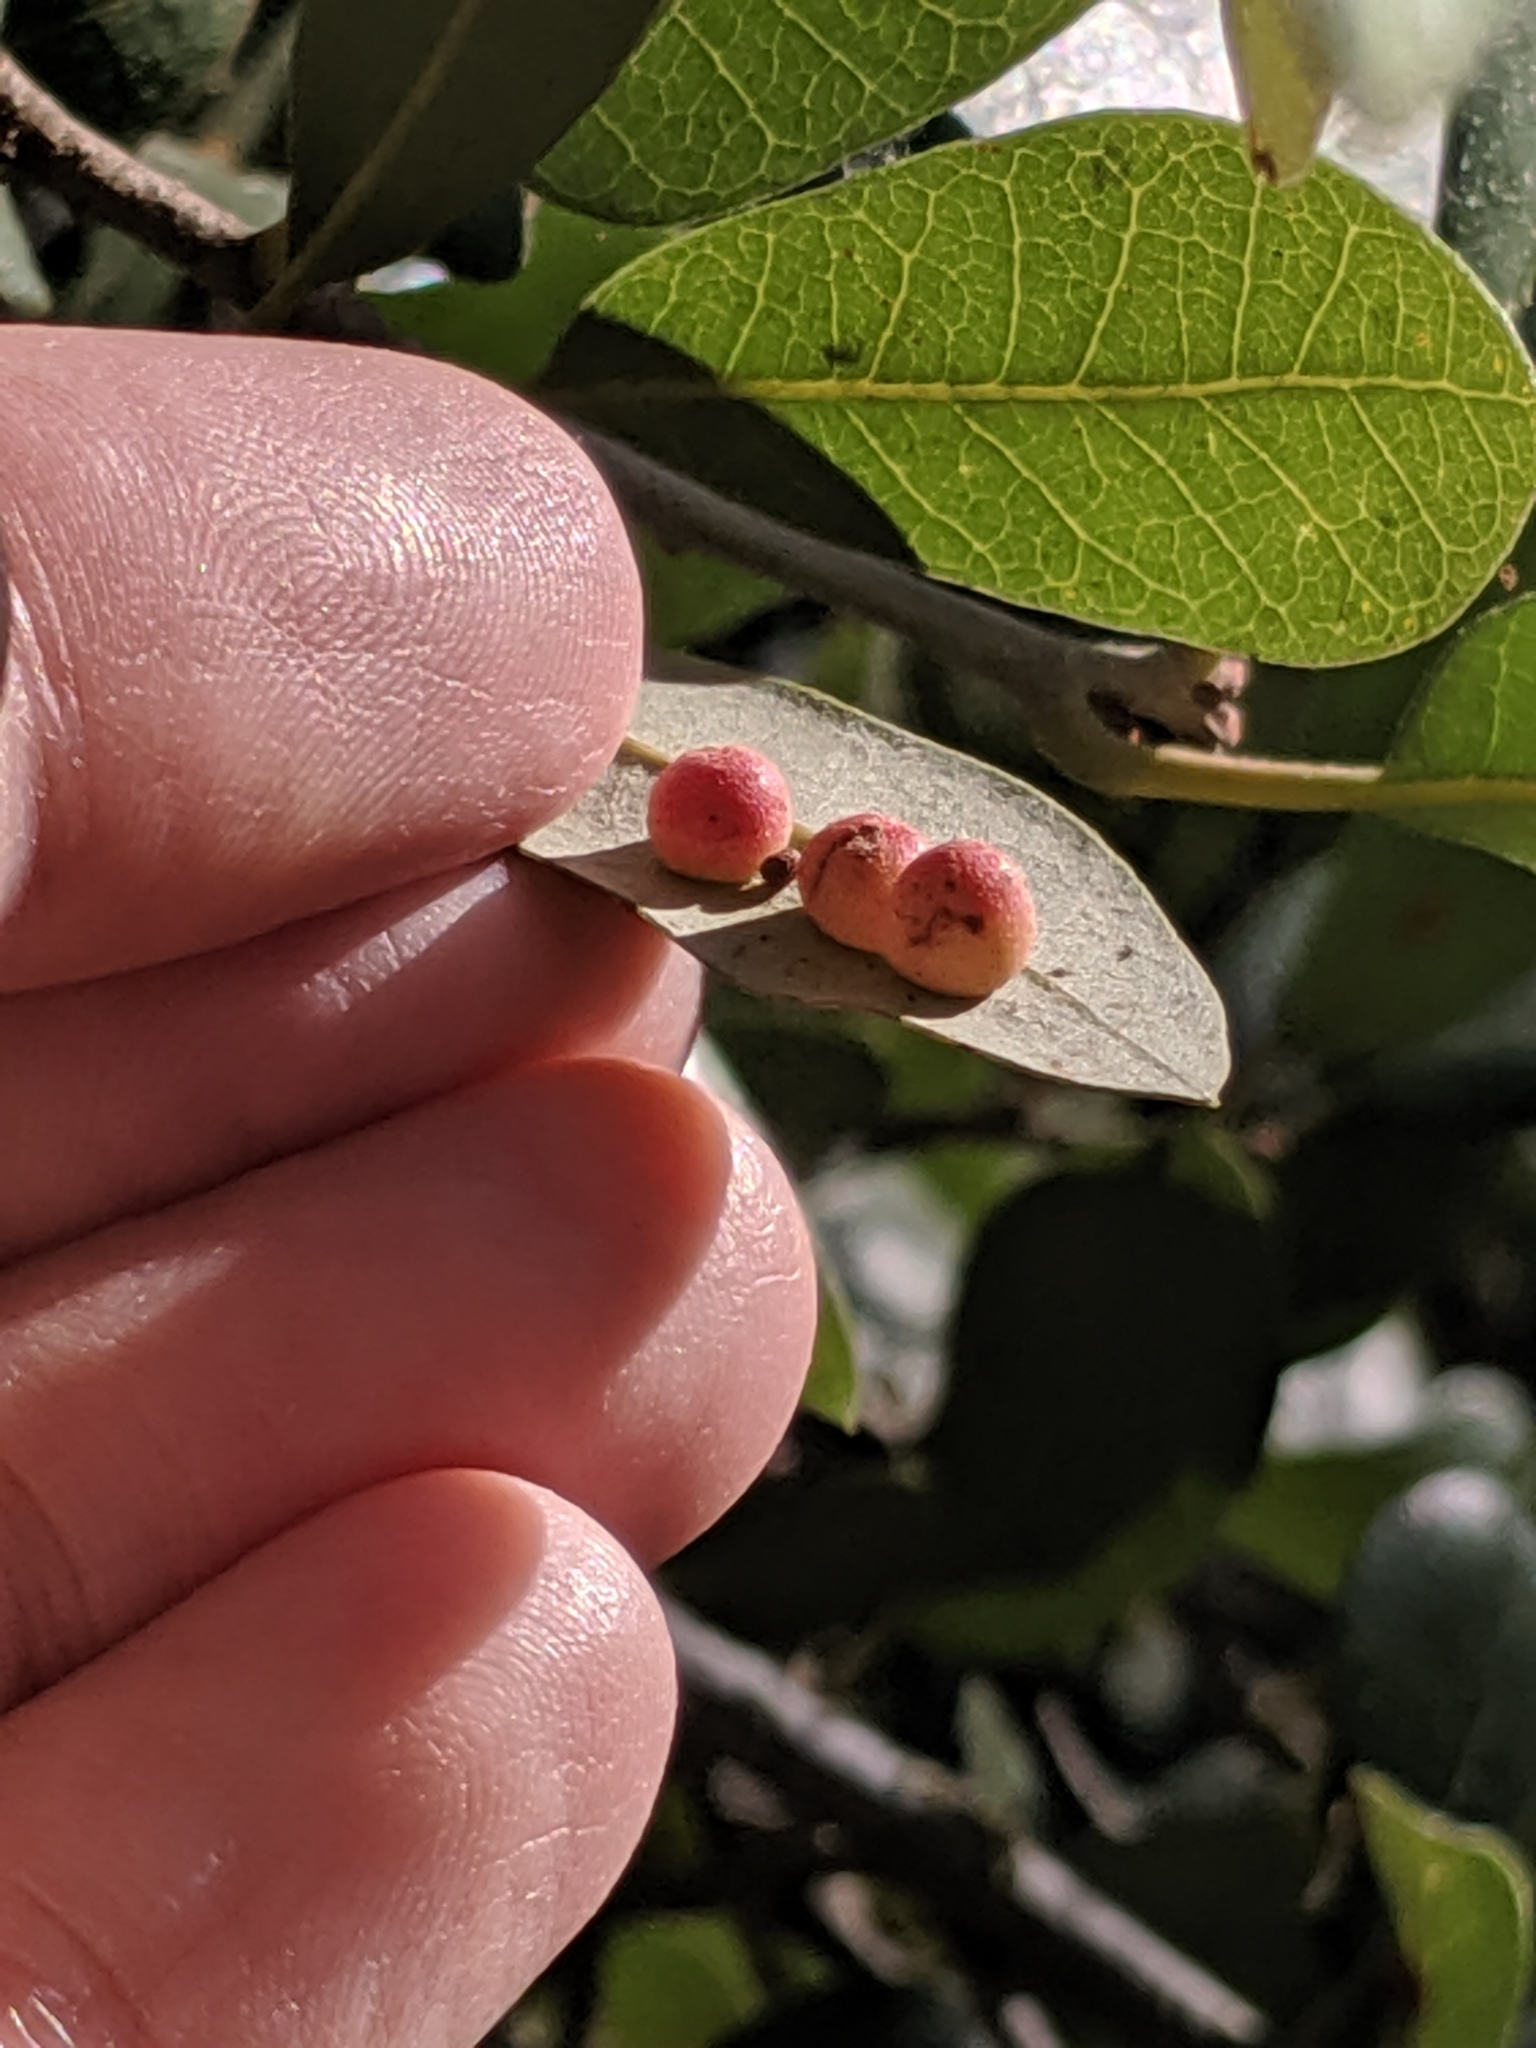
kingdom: Animalia
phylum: Arthropoda
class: Insecta
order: Hymenoptera
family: Cynipidae
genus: Belonocnema
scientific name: Belonocnema kinseyi
